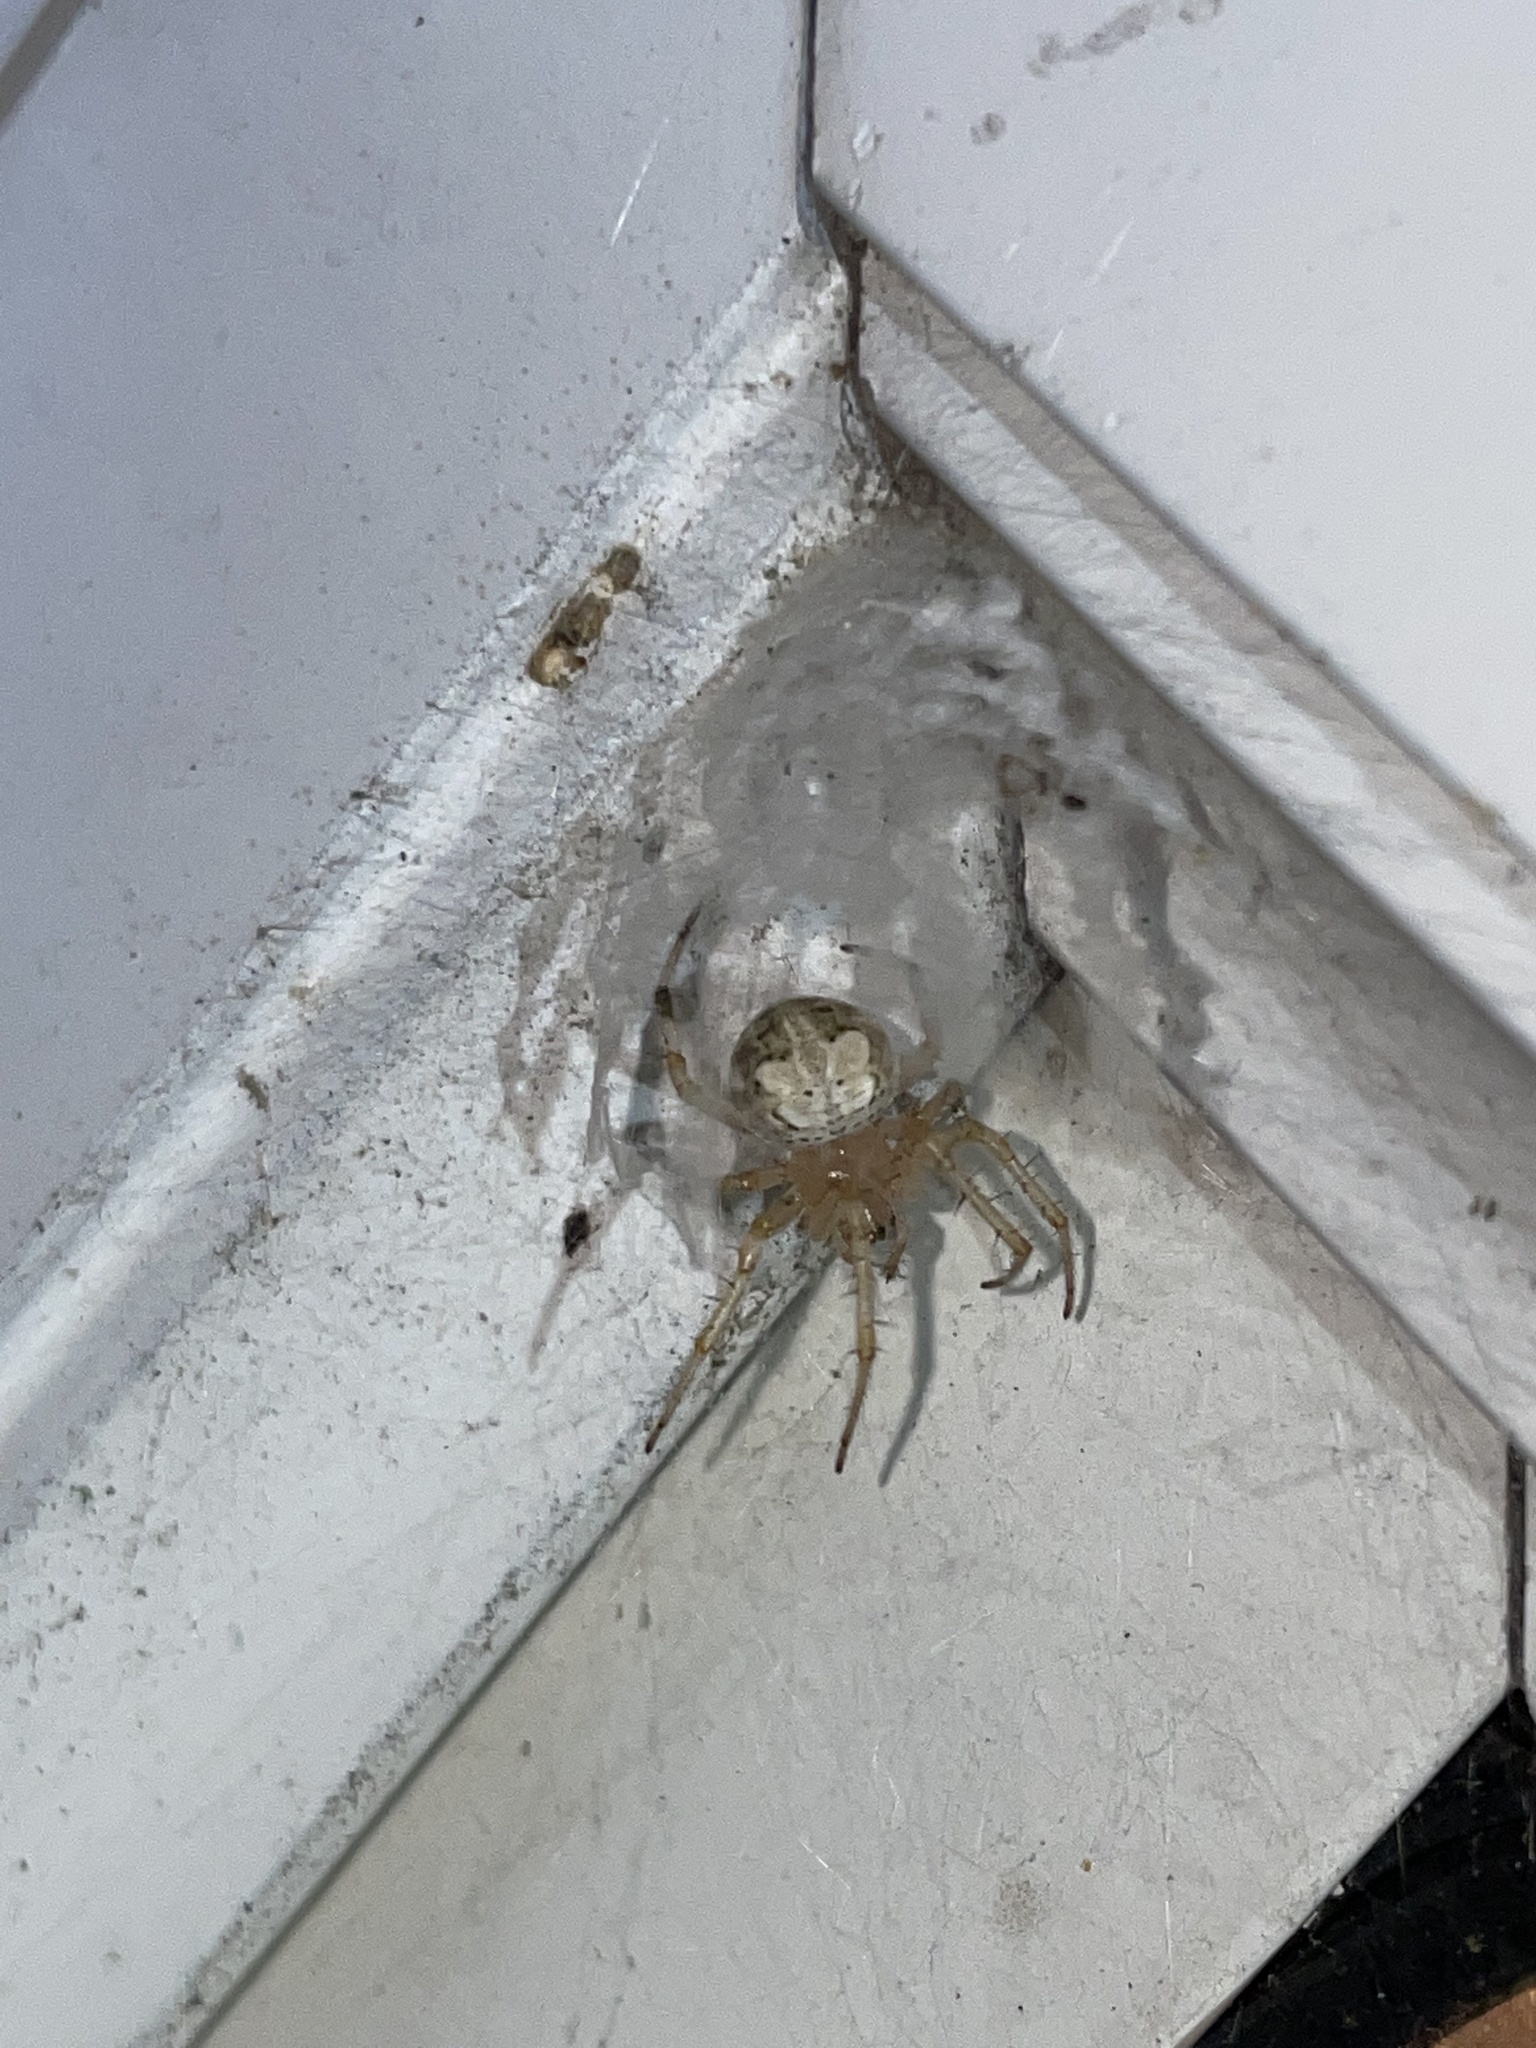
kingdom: Animalia
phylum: Arthropoda
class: Arachnida
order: Araneae
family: Araneidae
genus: Araneus
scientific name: Araneus pegnia
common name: Orb weavers
